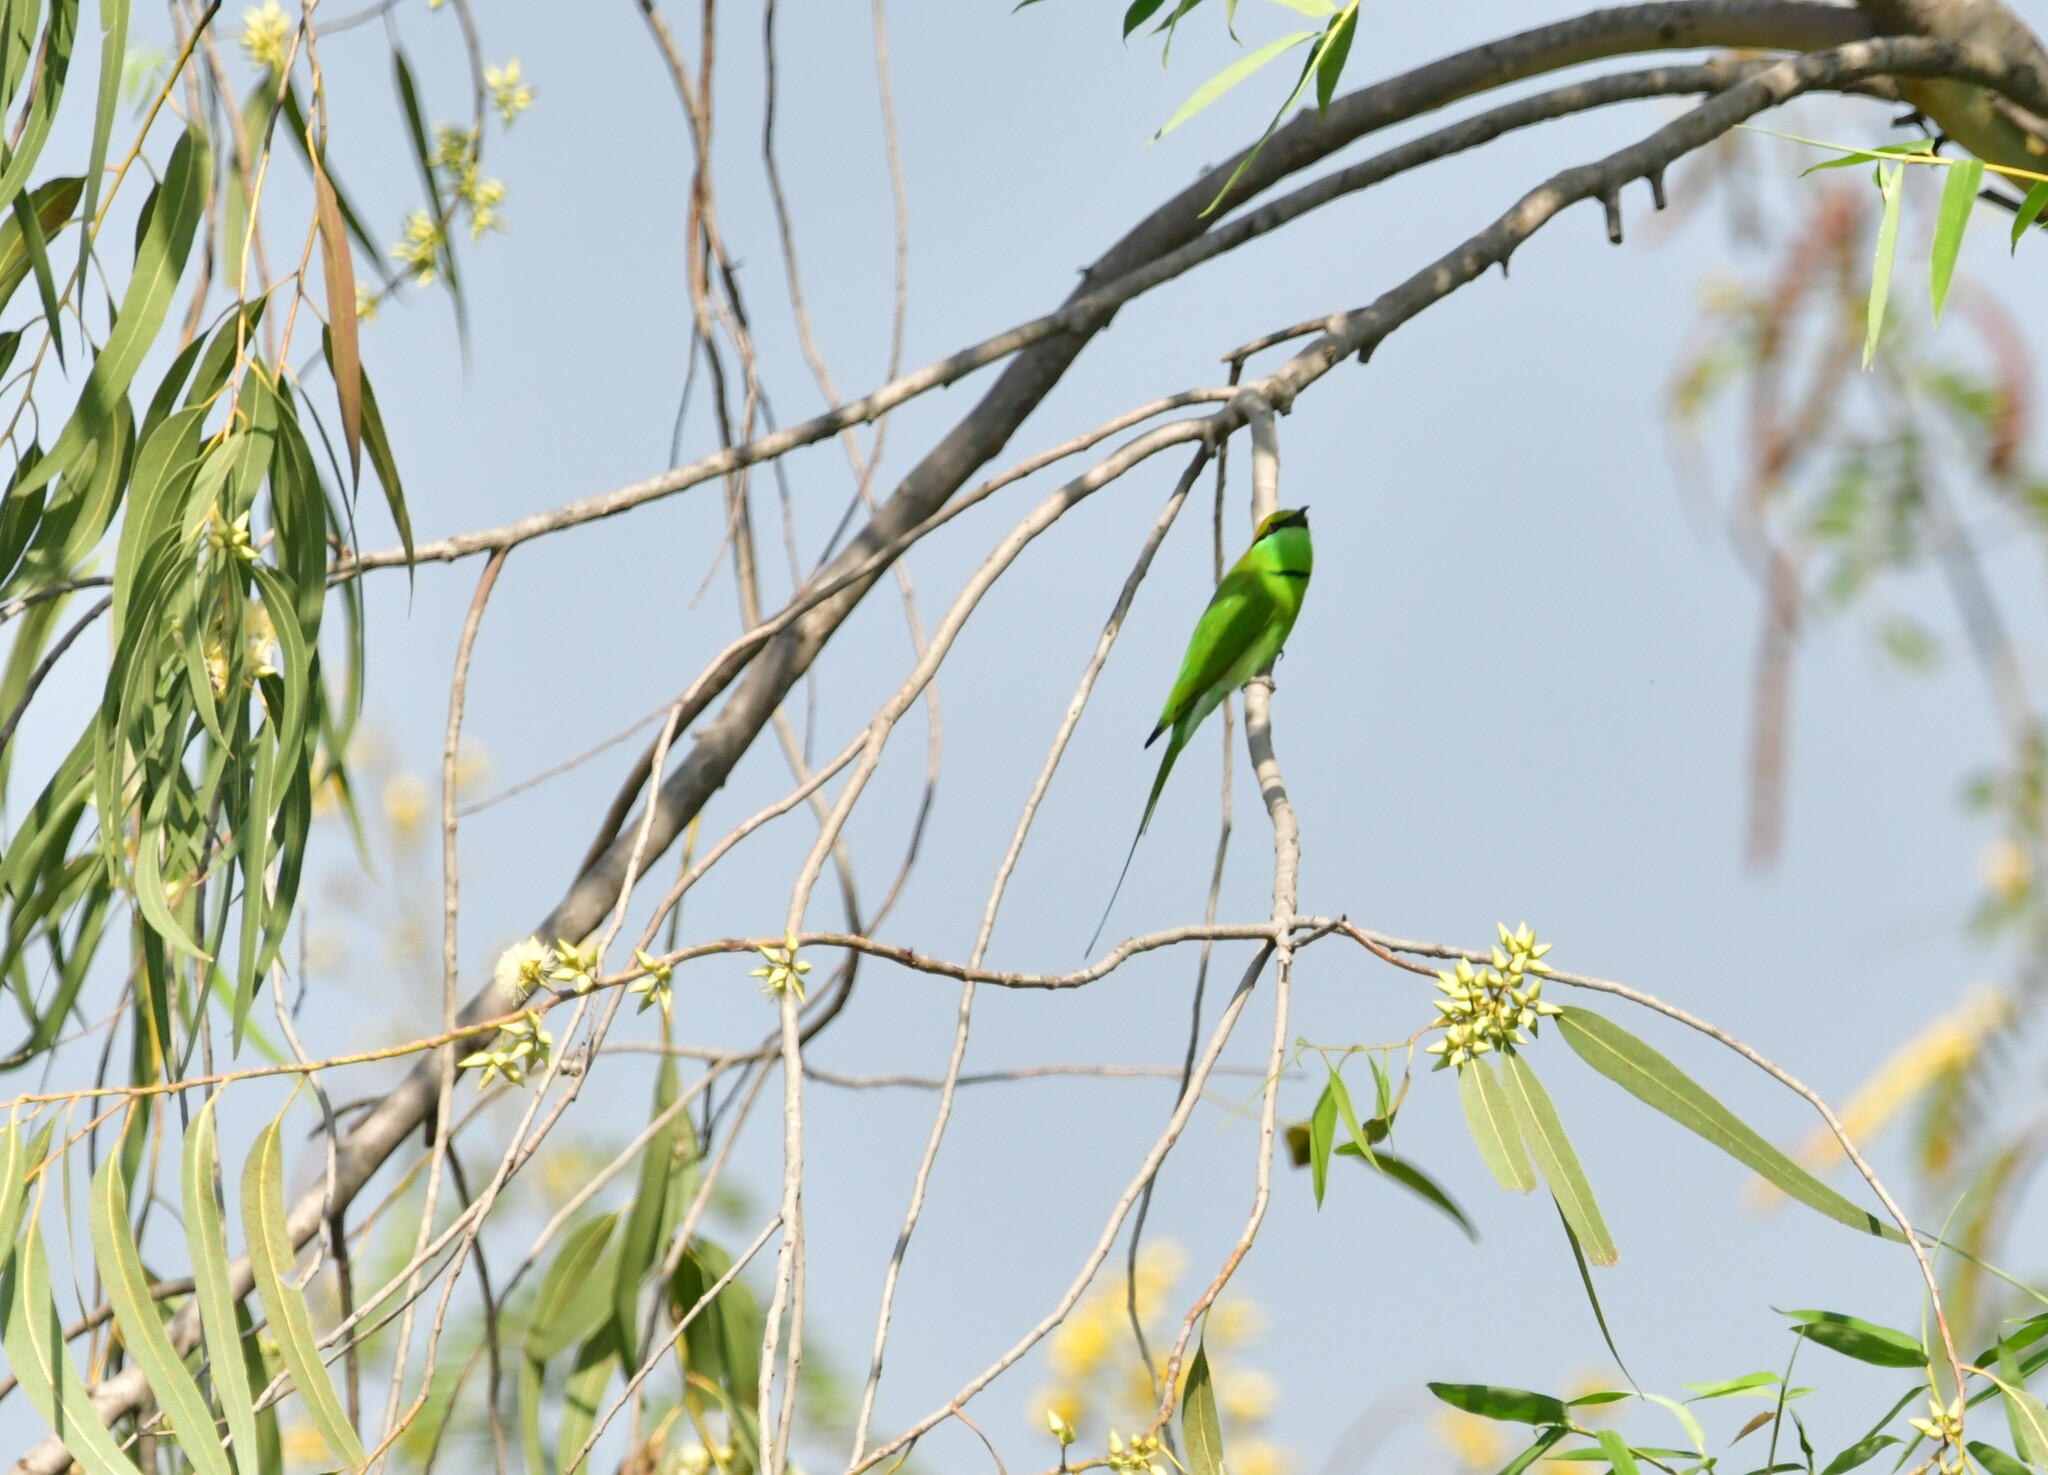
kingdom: Animalia
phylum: Chordata
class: Aves
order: Coraciiformes
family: Meropidae
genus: Merops
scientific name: Merops orientalis
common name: Green bee-eater
